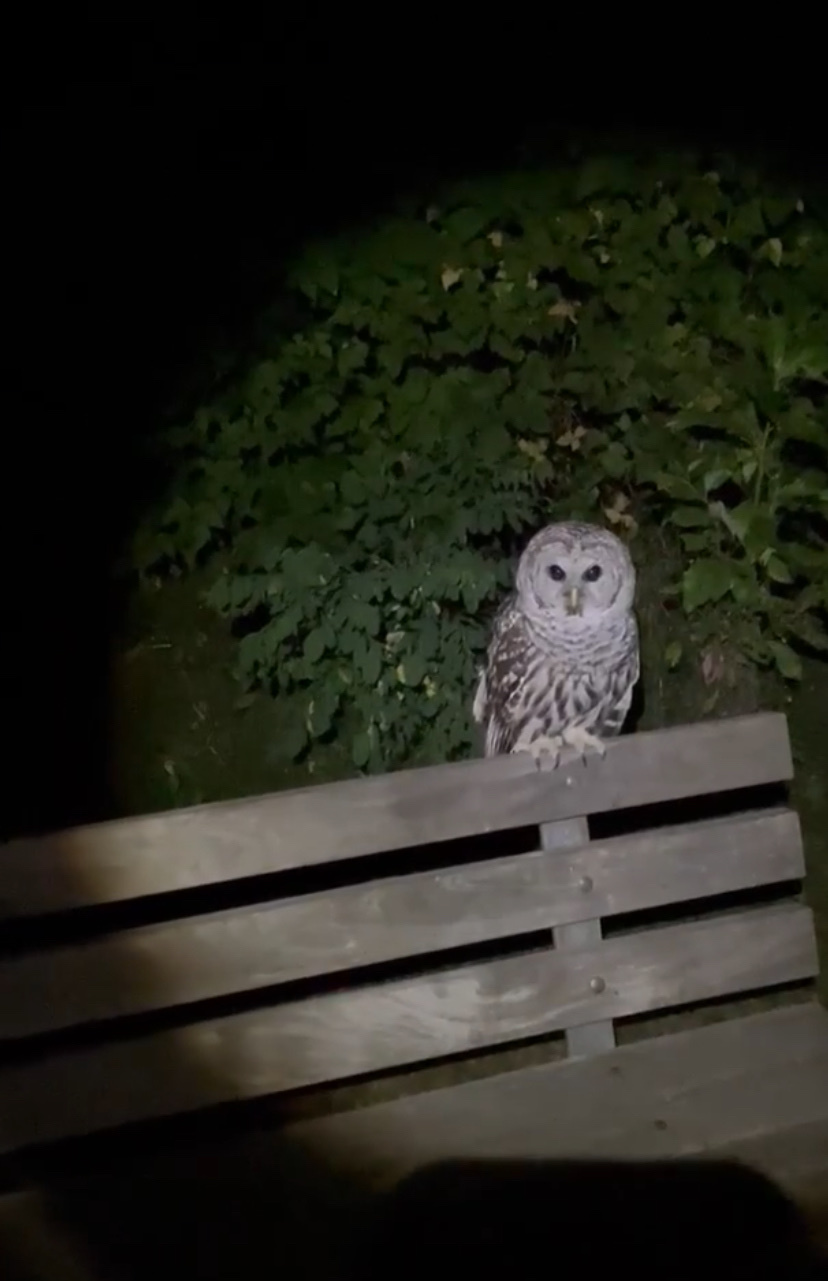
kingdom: Animalia
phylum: Chordata
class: Aves
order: Strigiformes
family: Strigidae
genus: Strix
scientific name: Strix varia
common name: Barred owl
